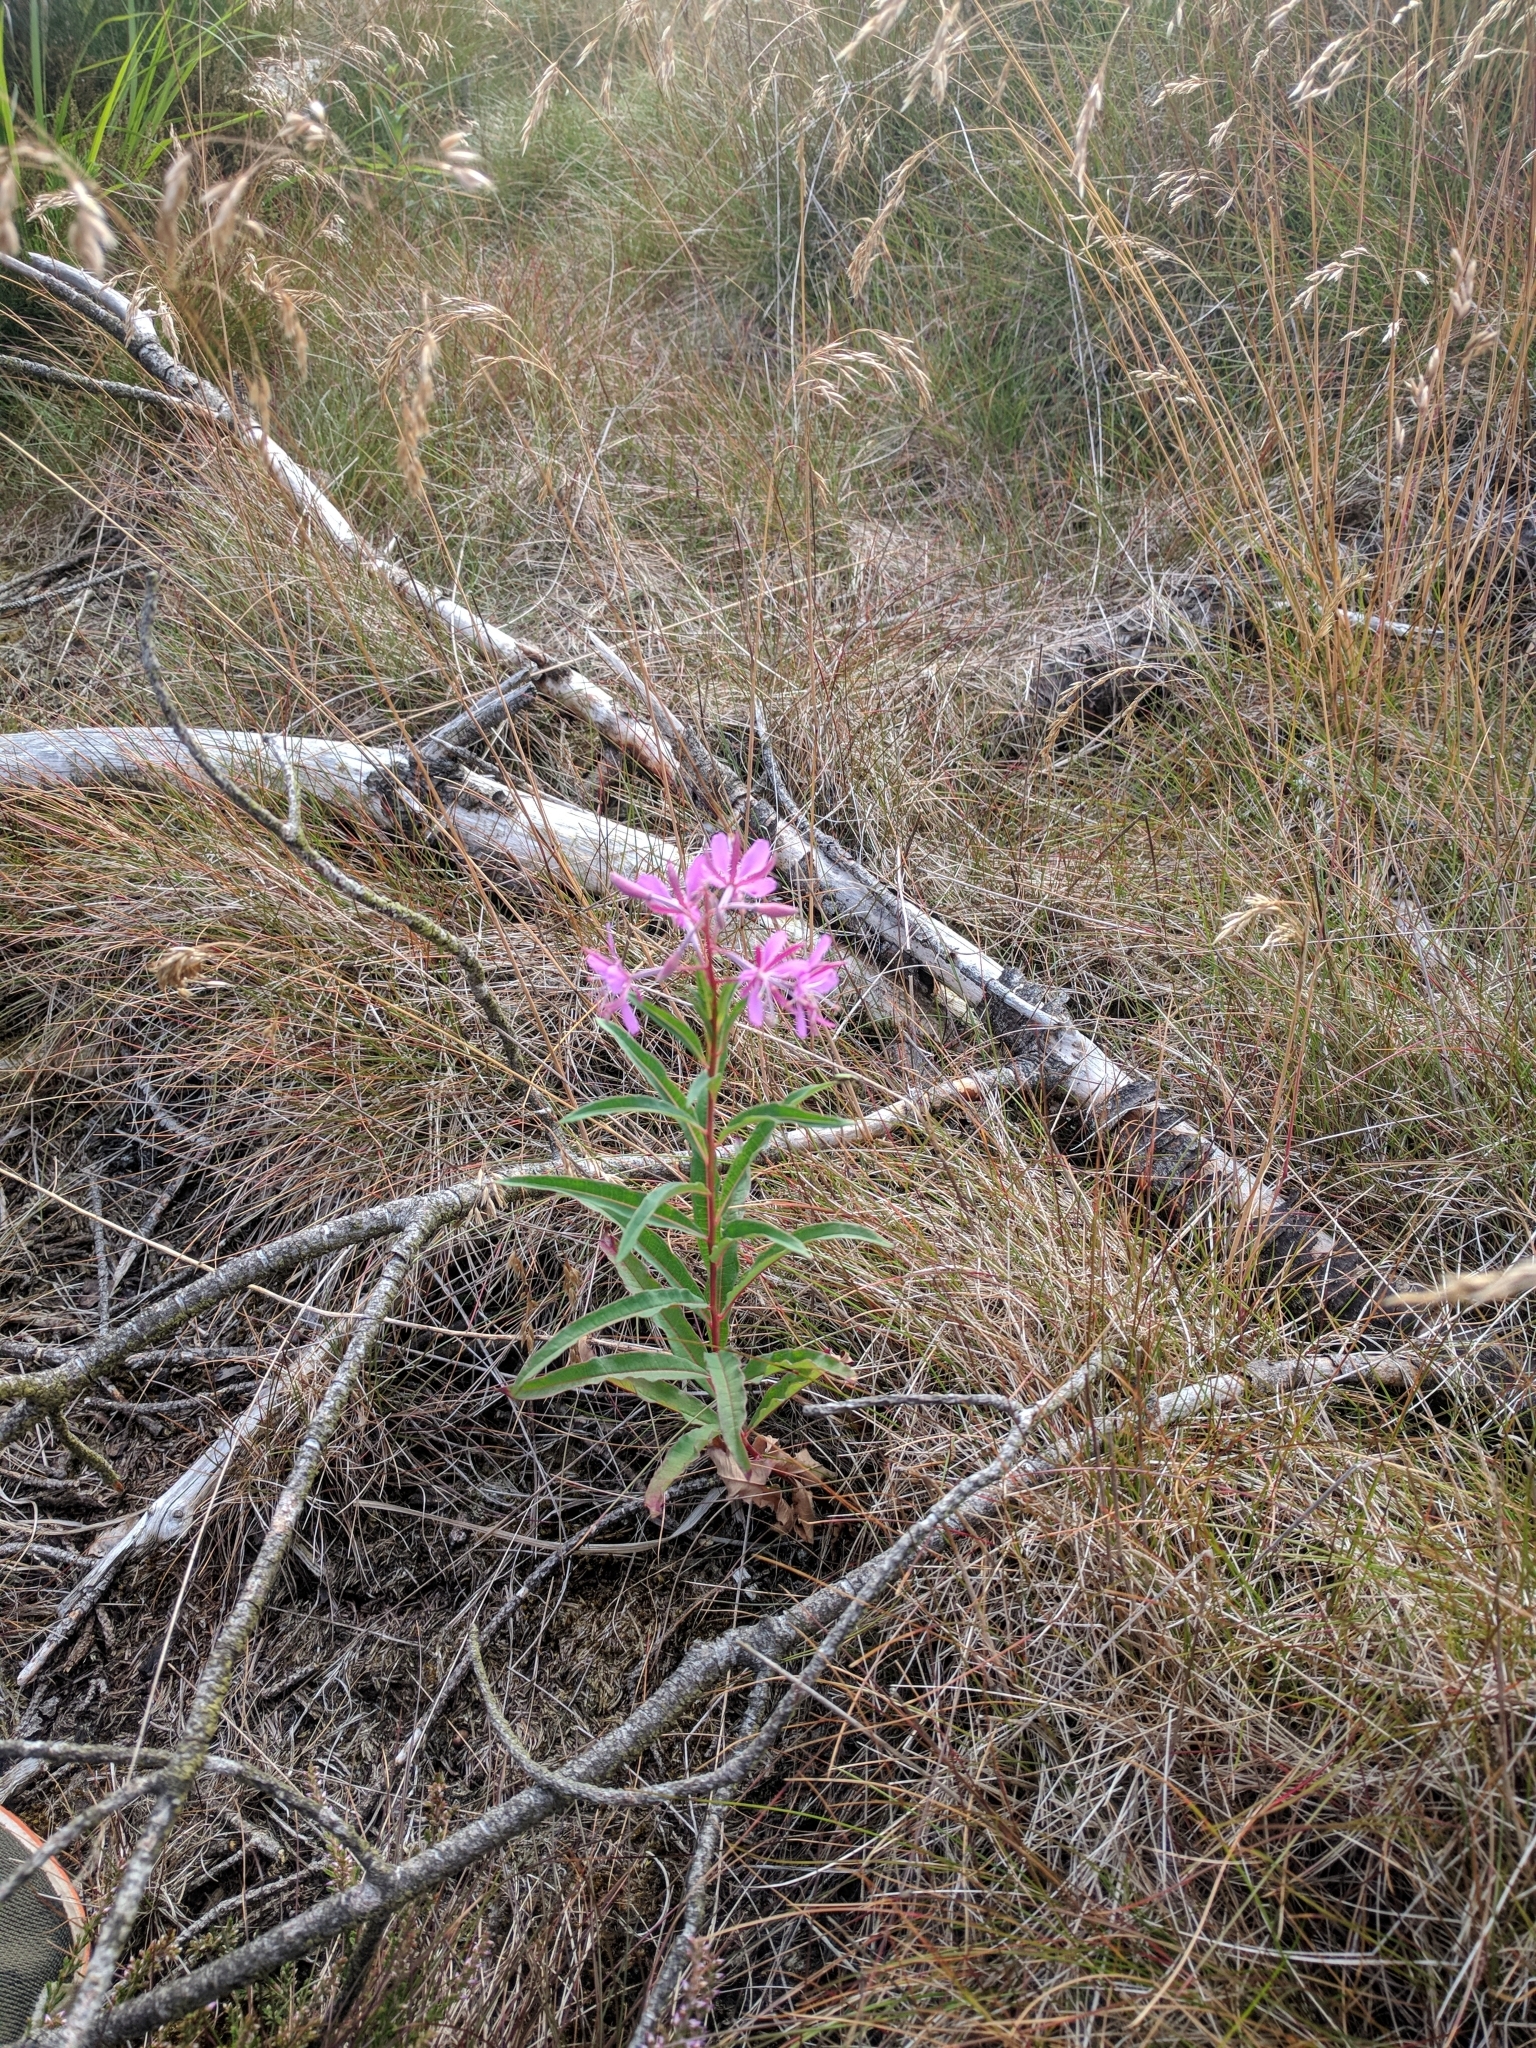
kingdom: Plantae
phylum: Tracheophyta
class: Magnoliopsida
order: Myrtales
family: Onagraceae
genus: Chamaenerion
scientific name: Chamaenerion angustifolium
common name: Fireweed
